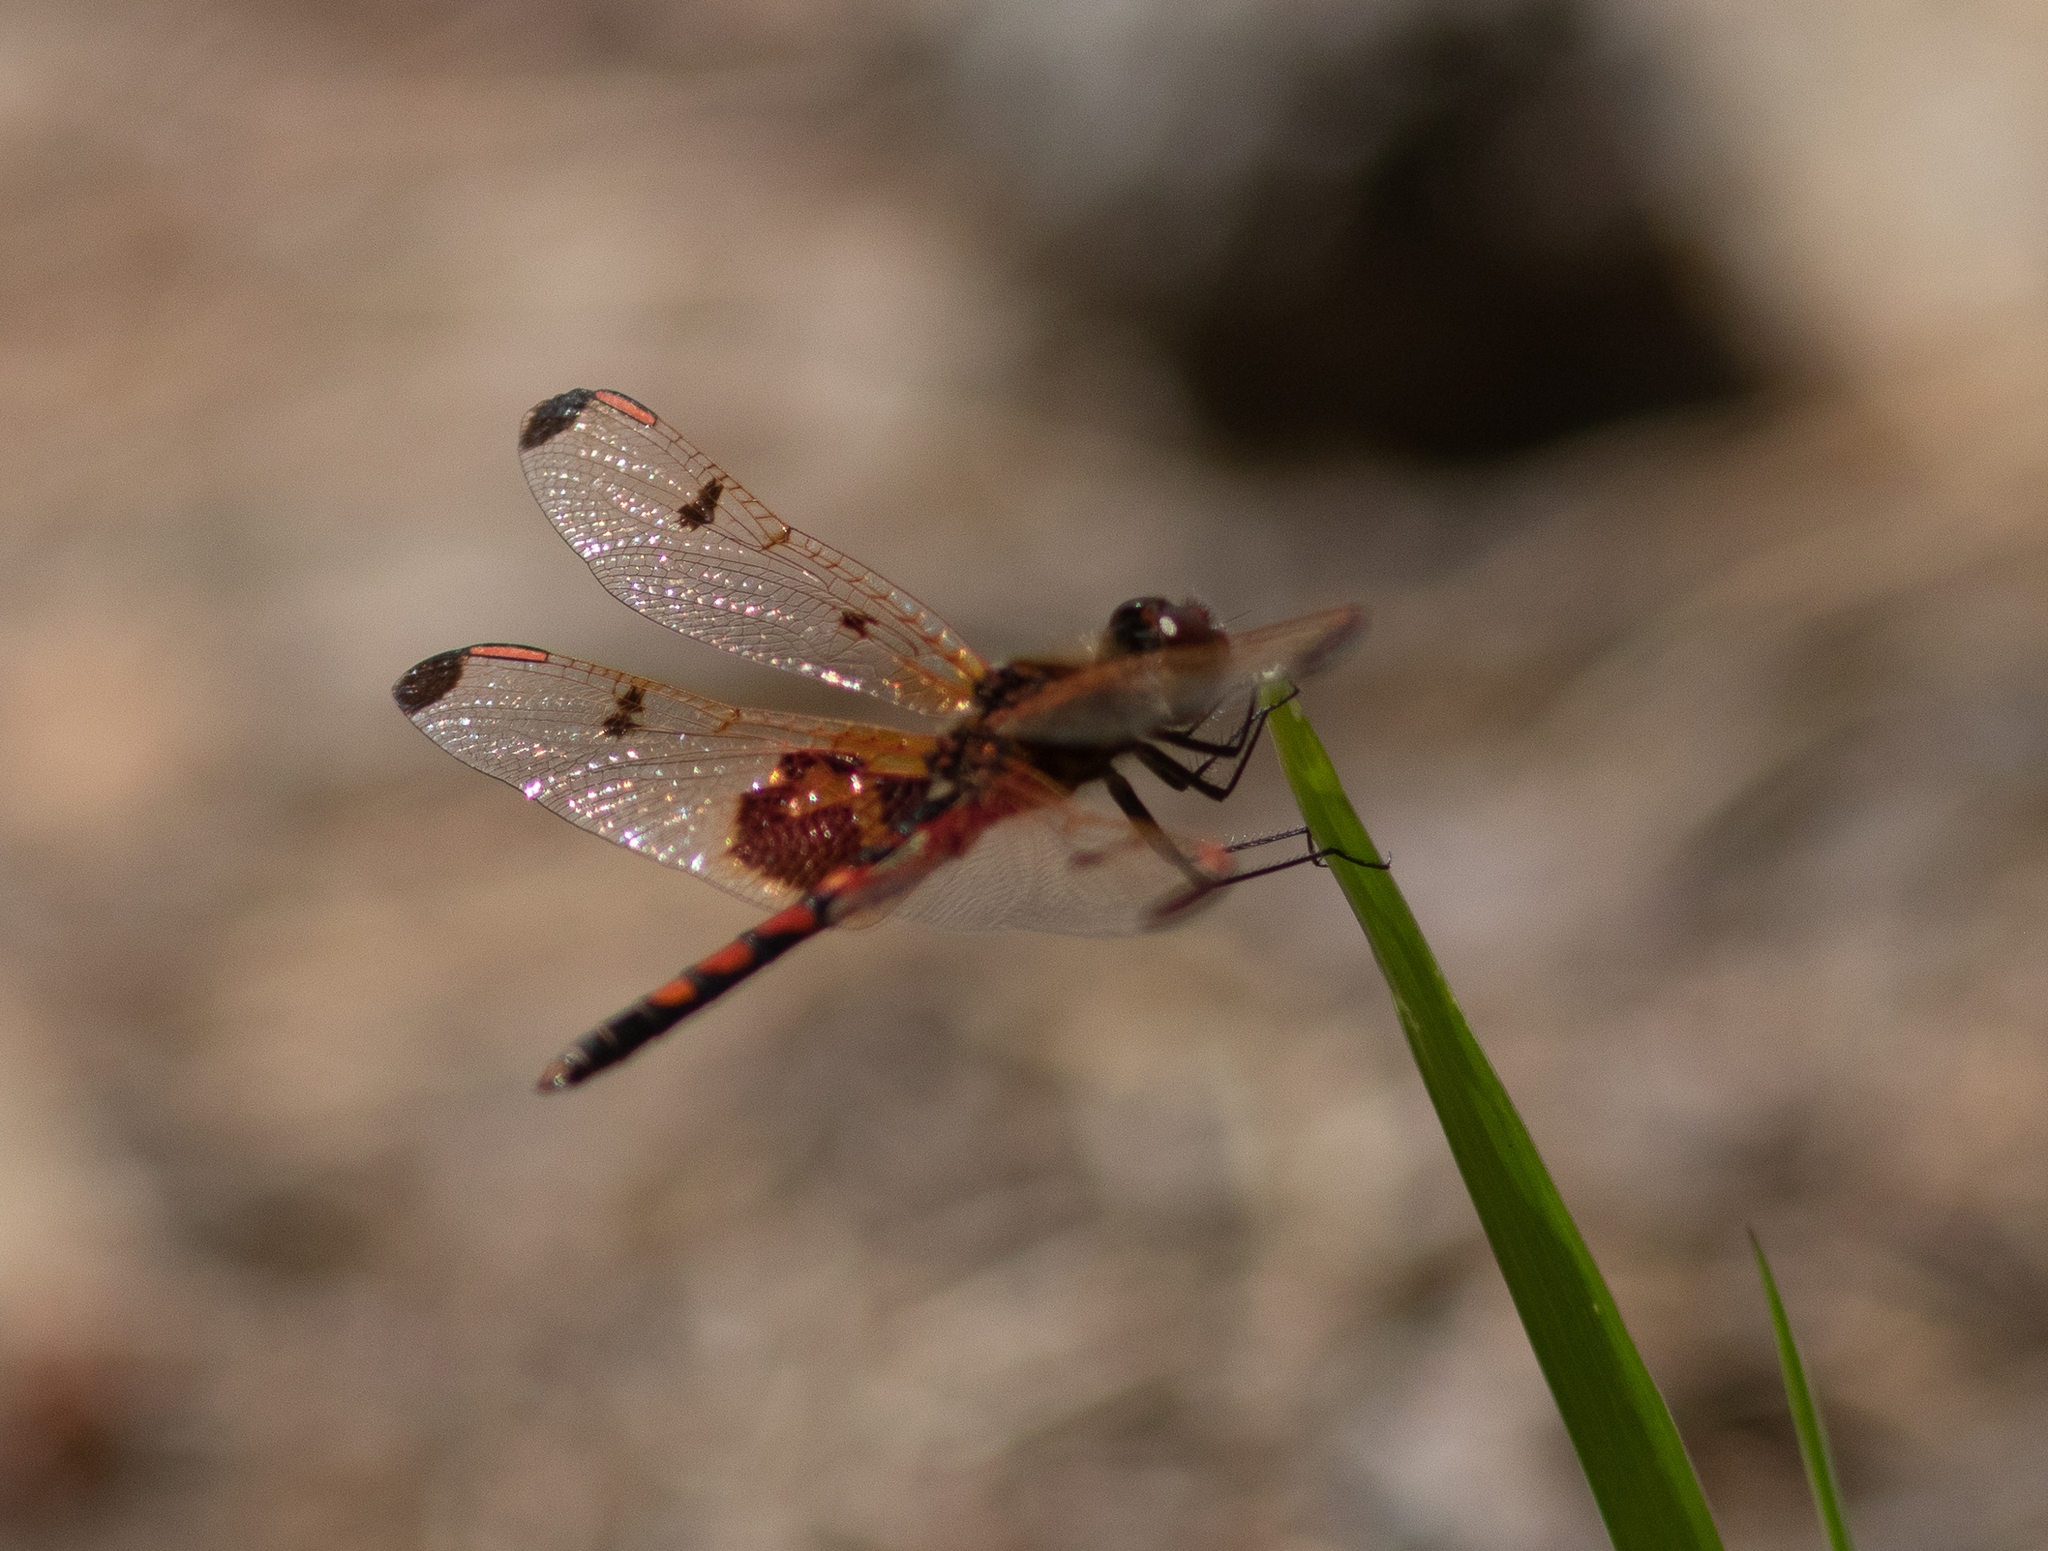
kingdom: Animalia
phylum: Arthropoda
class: Insecta
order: Odonata
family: Libellulidae
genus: Celithemis
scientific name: Celithemis elisa
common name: Calico pennant
